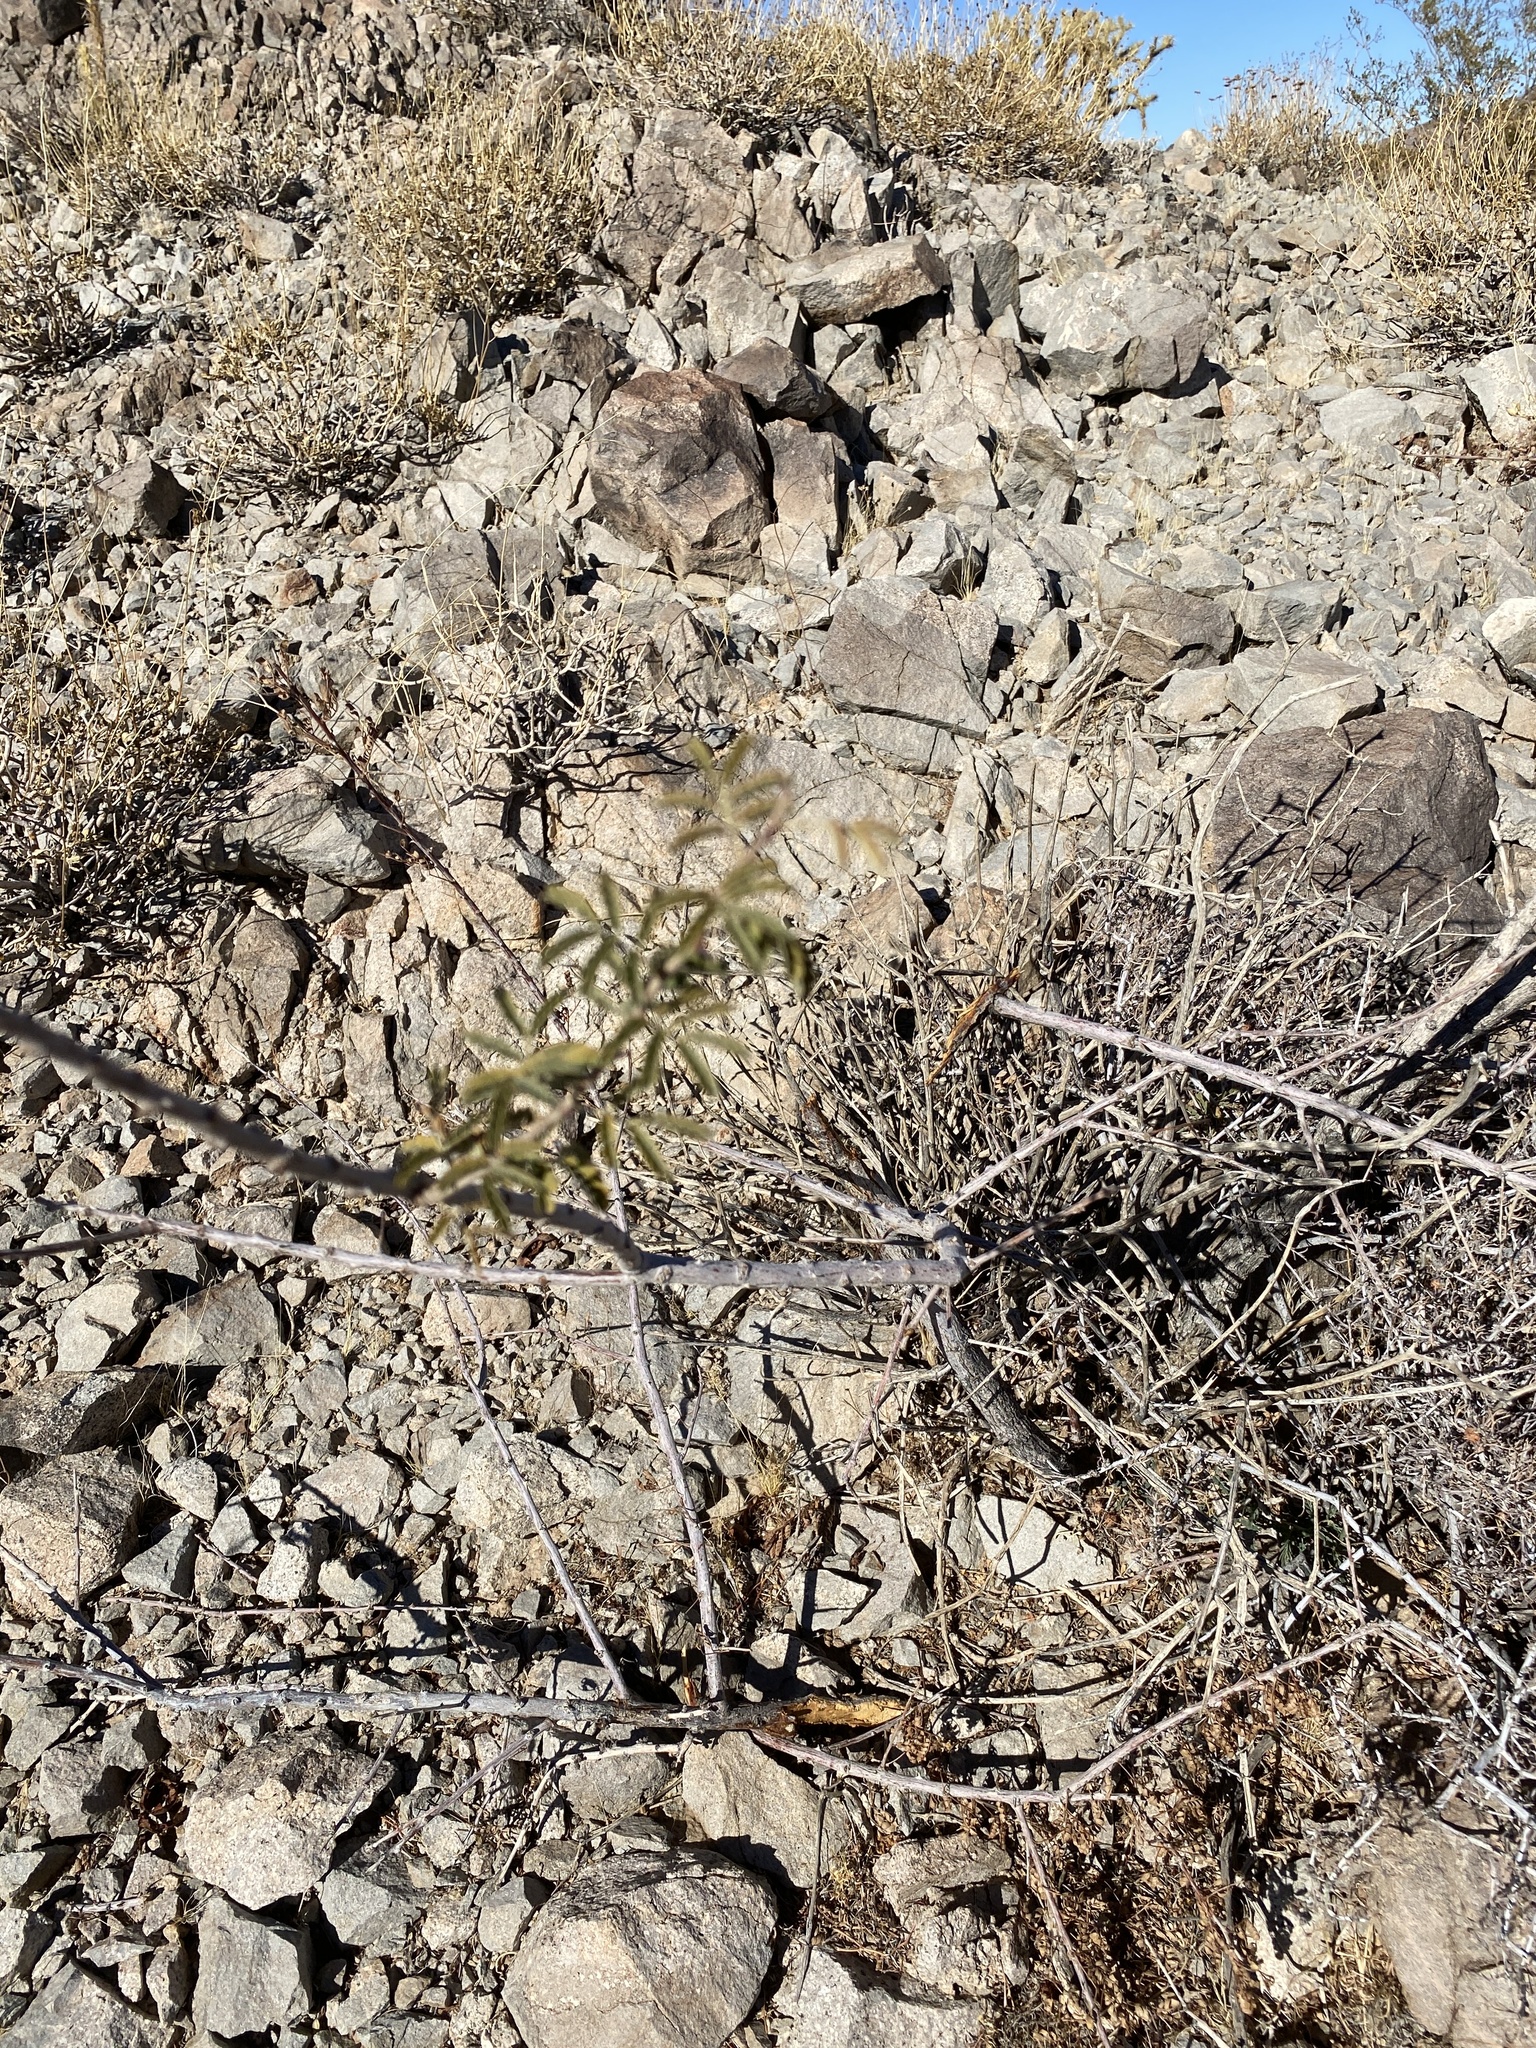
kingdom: Plantae
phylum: Tracheophyta
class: Magnoliopsida
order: Fabales
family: Fabaceae
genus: Senegalia
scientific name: Senegalia greggii
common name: Texas-mimosa
